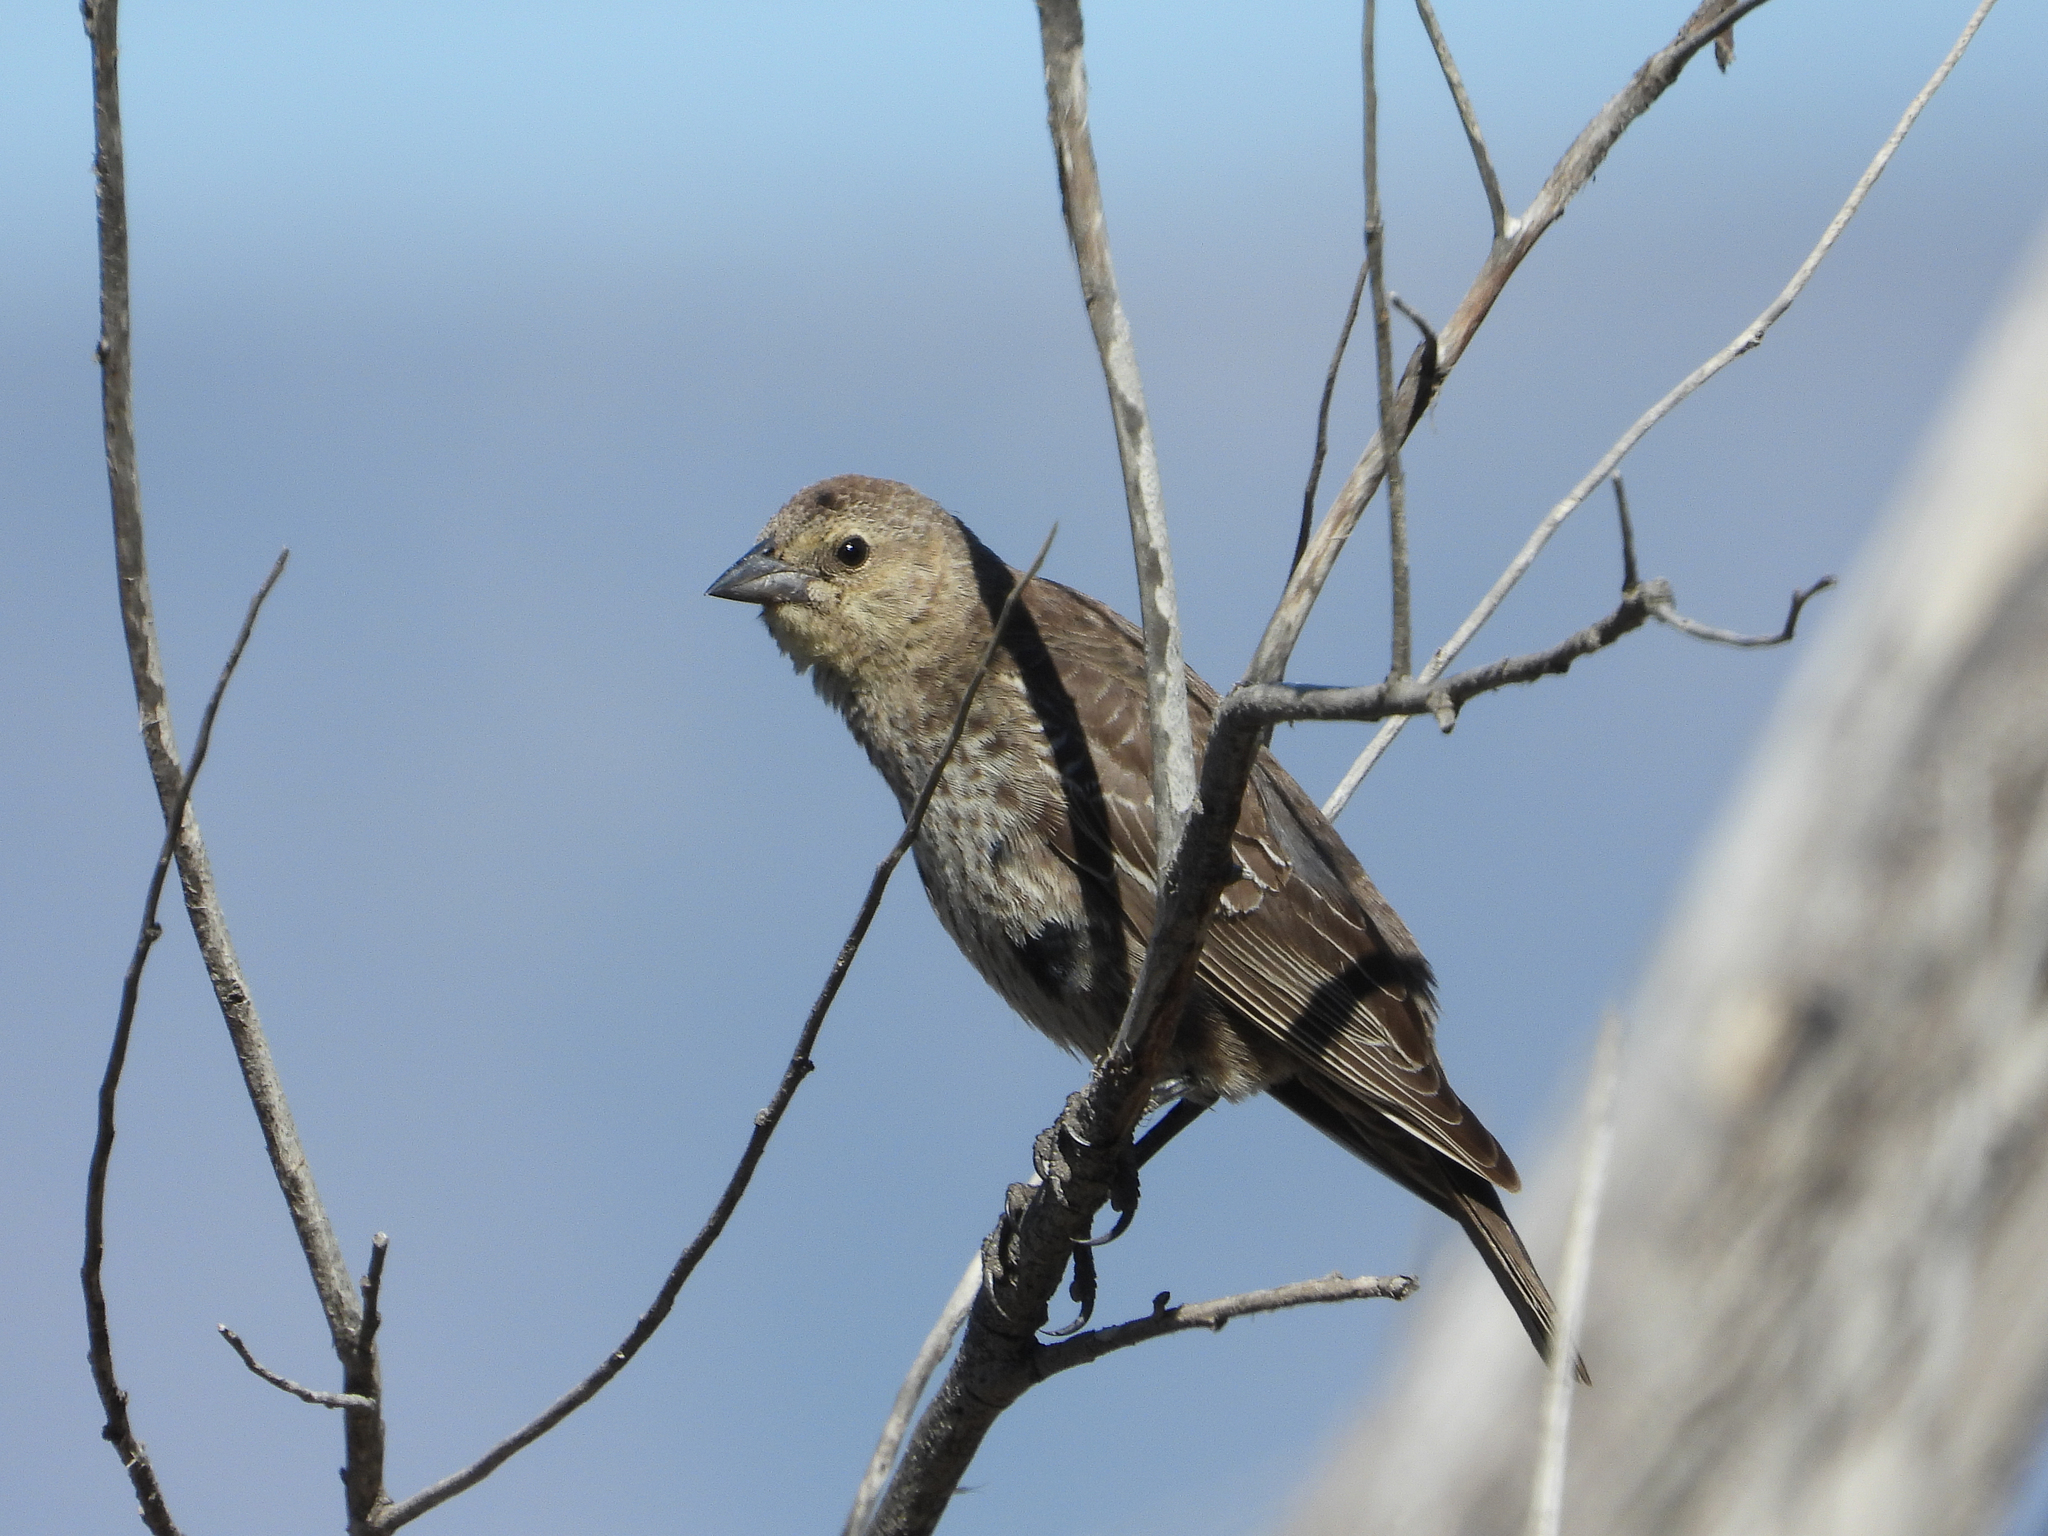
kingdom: Animalia
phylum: Chordata
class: Aves
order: Passeriformes
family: Icteridae
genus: Molothrus
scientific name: Molothrus ater
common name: Brown-headed cowbird
